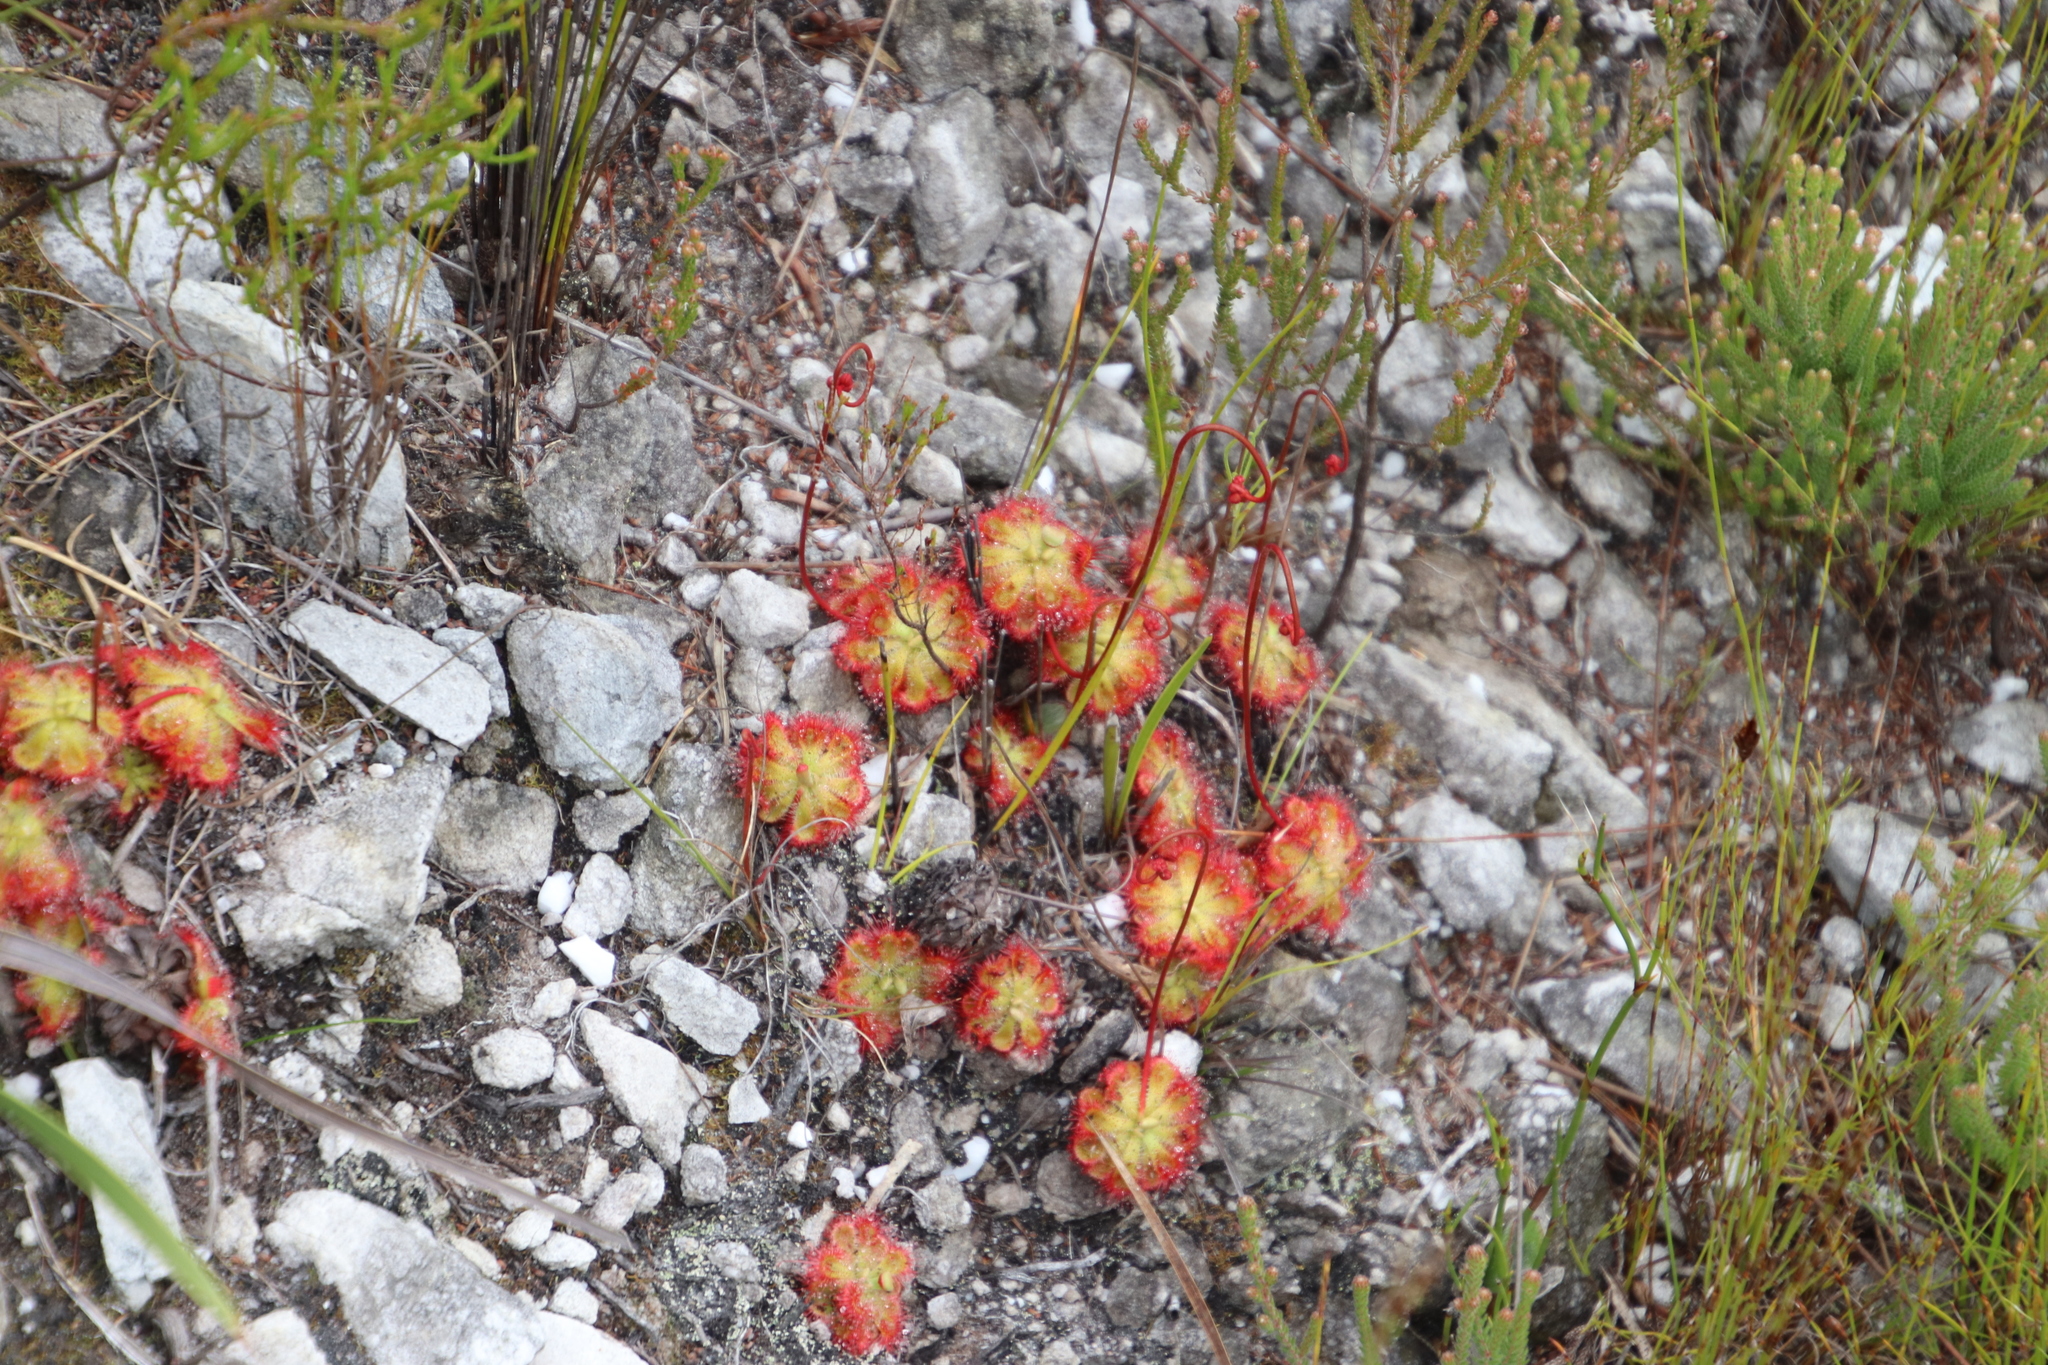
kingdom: Plantae
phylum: Tracheophyta
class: Magnoliopsida
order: Caryophyllales
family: Droseraceae
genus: Drosera
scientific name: Drosera xerophila
